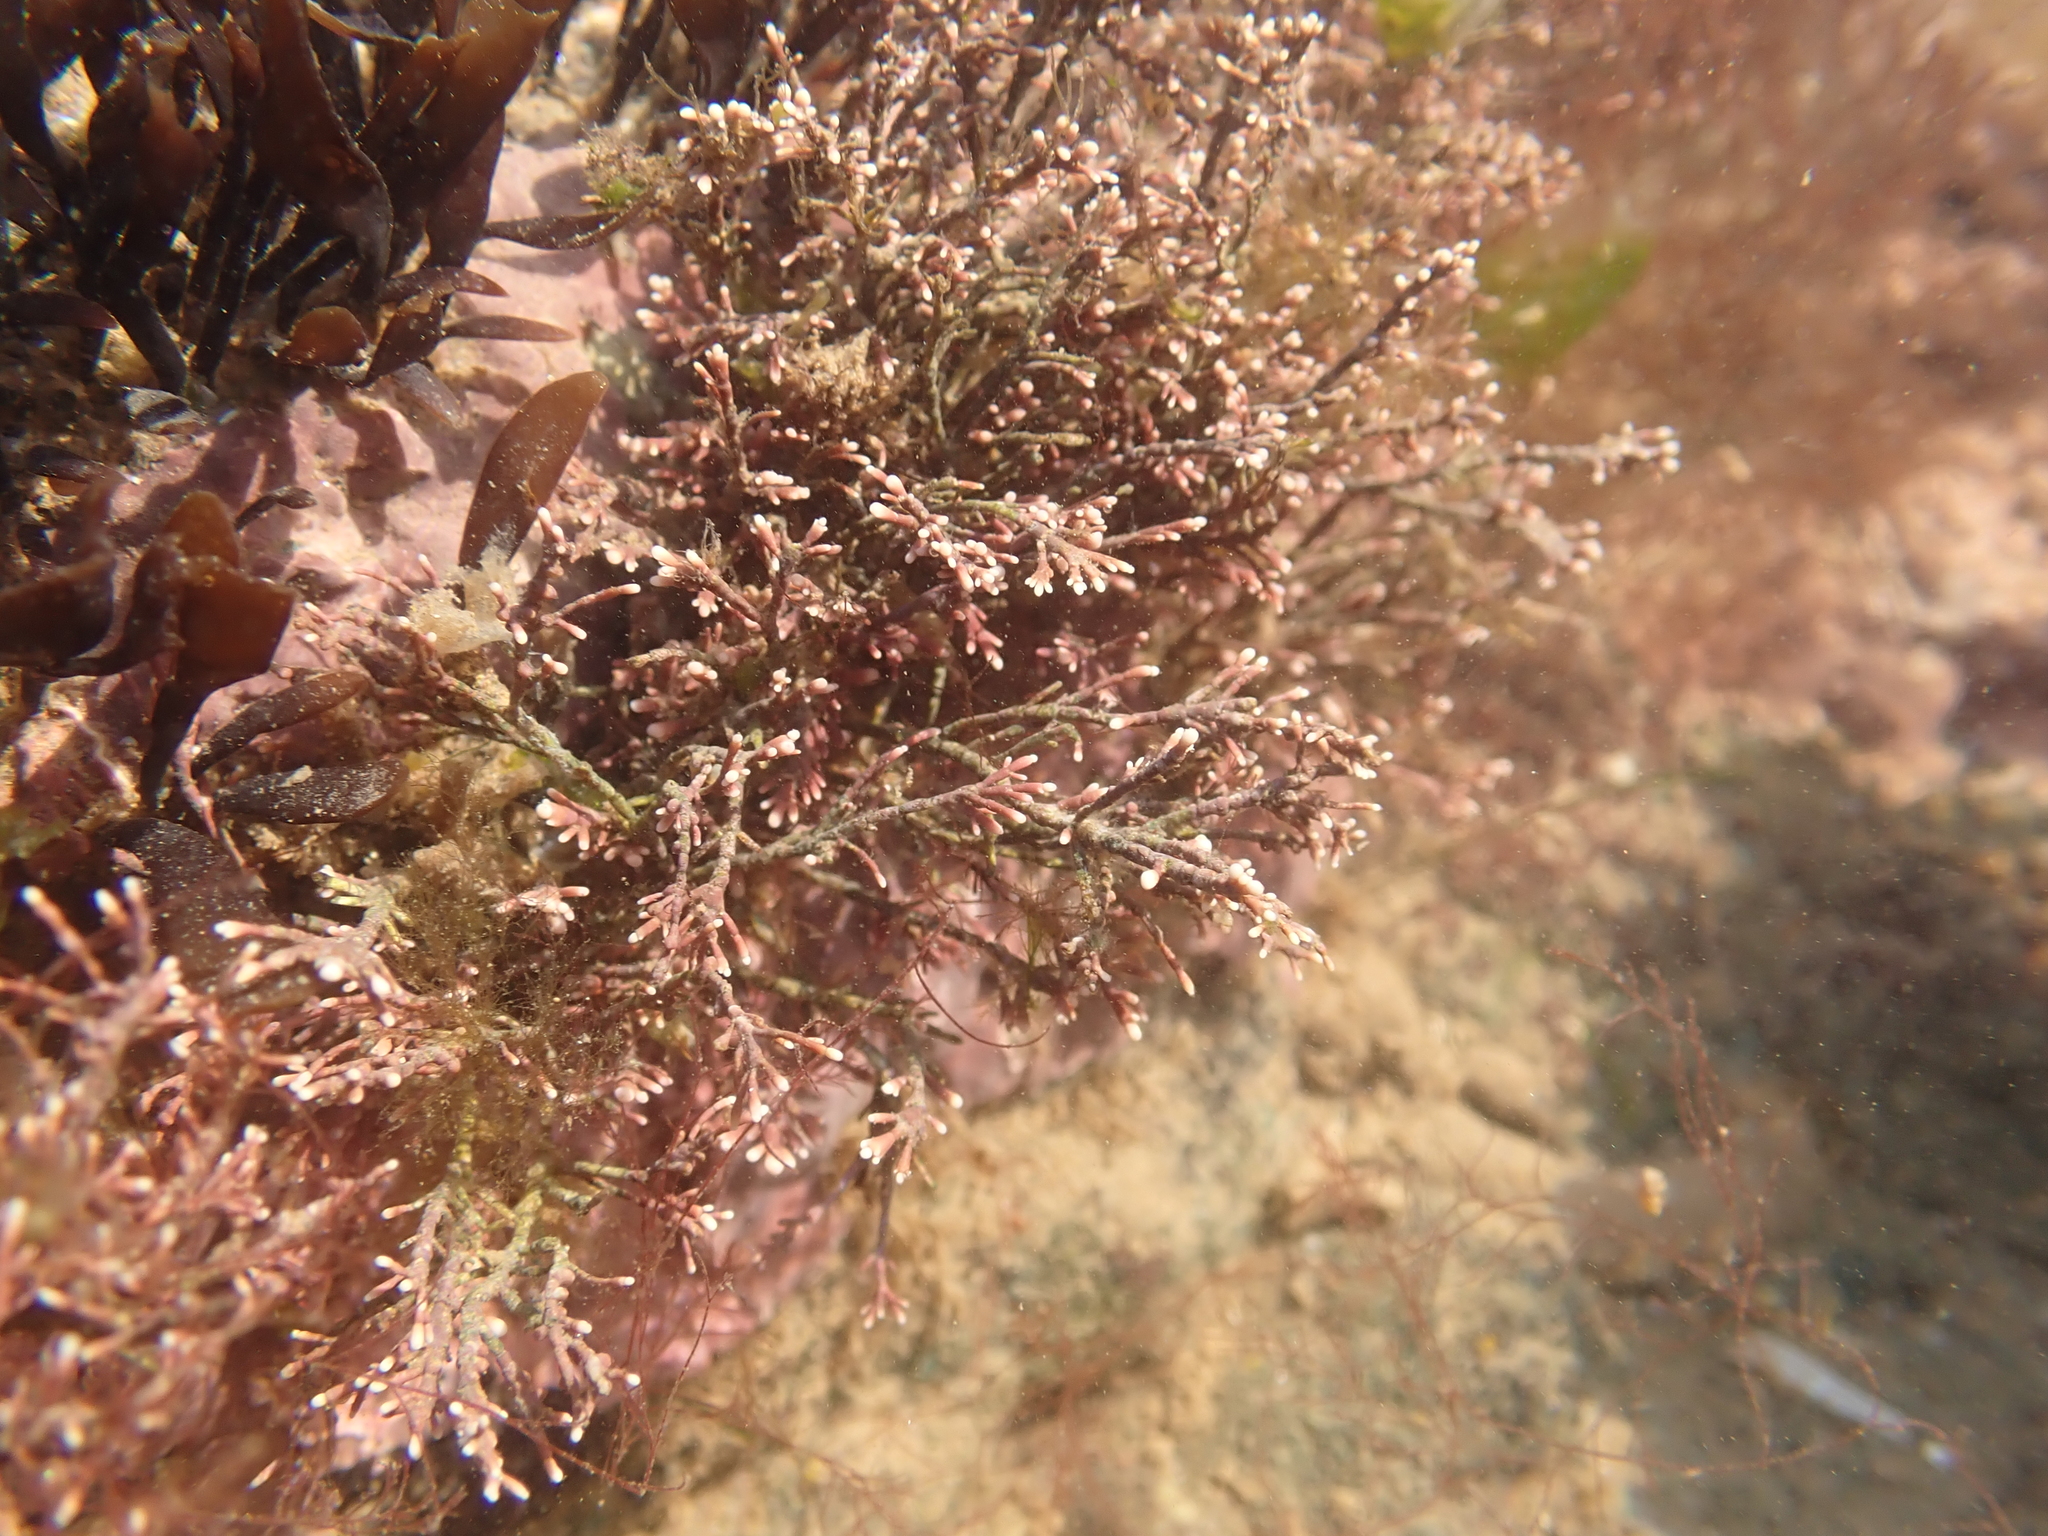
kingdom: Plantae
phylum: Rhodophyta
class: Florideophyceae
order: Corallinales
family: Corallinaceae
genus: Corallina
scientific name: Corallina officinalis
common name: Coral weed
